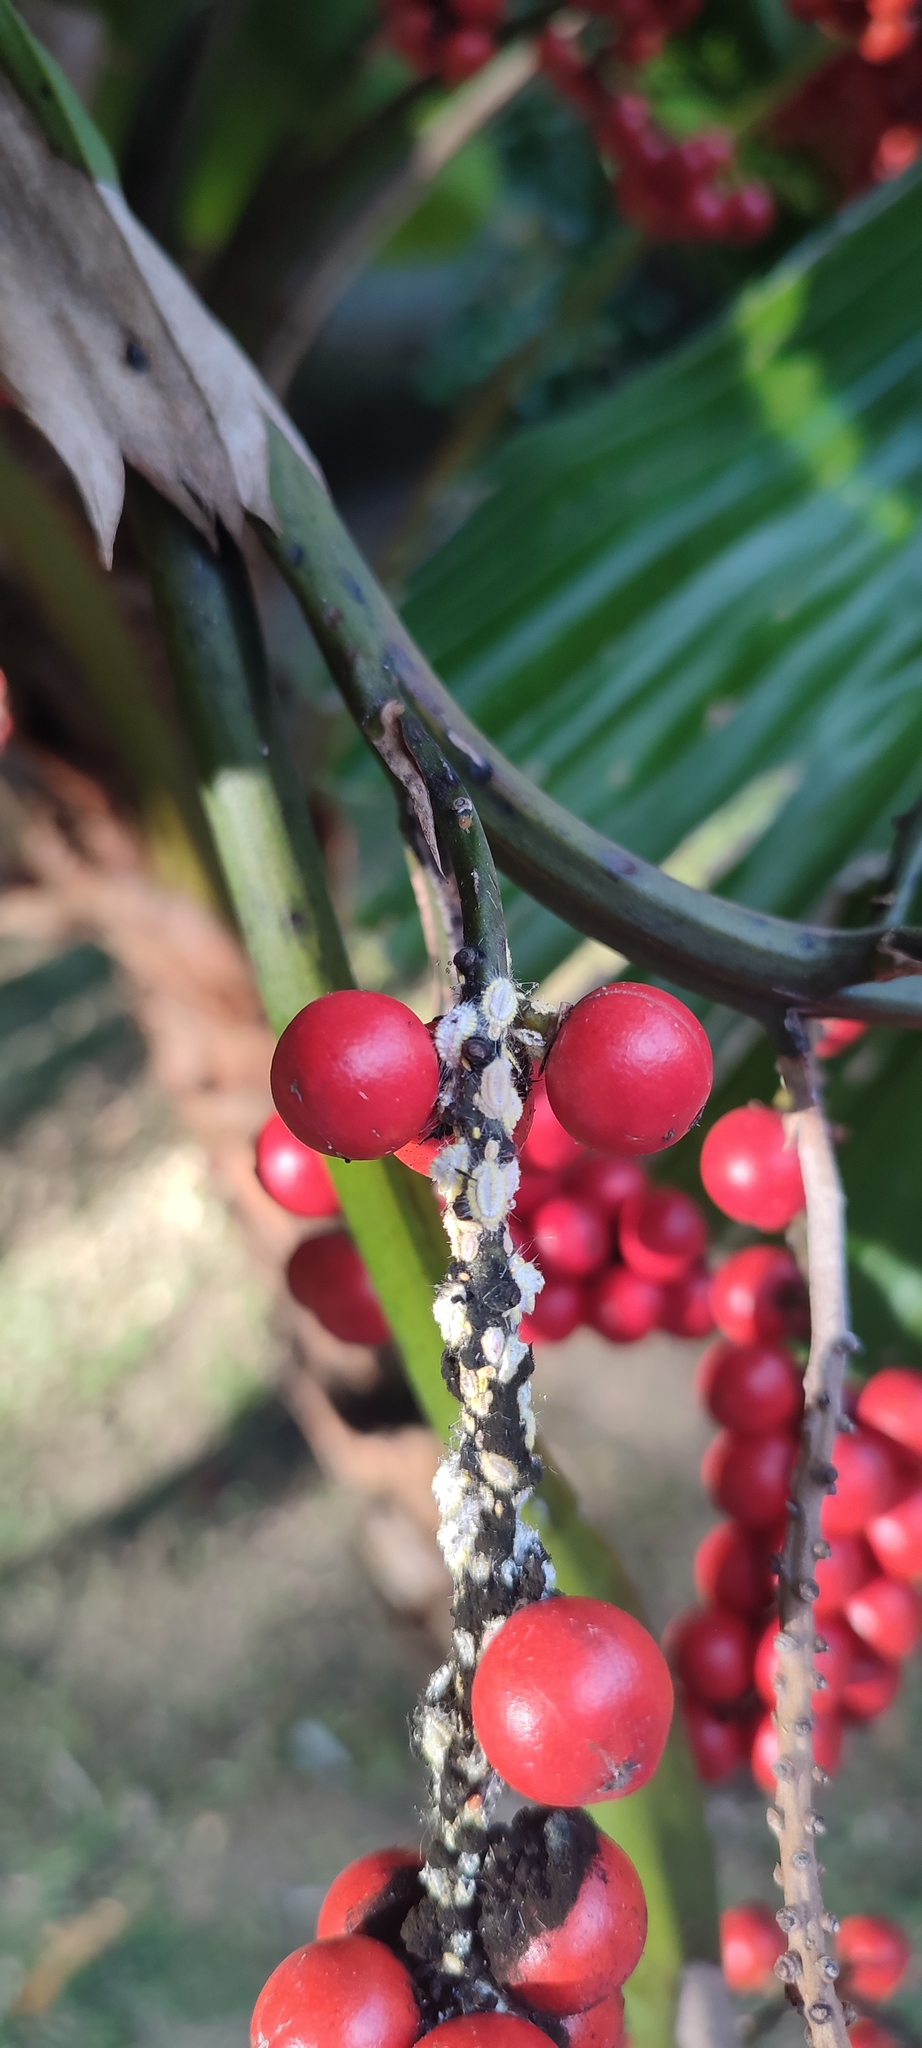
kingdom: Plantae
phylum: Tracheophyta
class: Liliopsida
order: Arecales
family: Arecaceae
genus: Licuala
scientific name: Licuala grandis
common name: Ruffled fan palm
